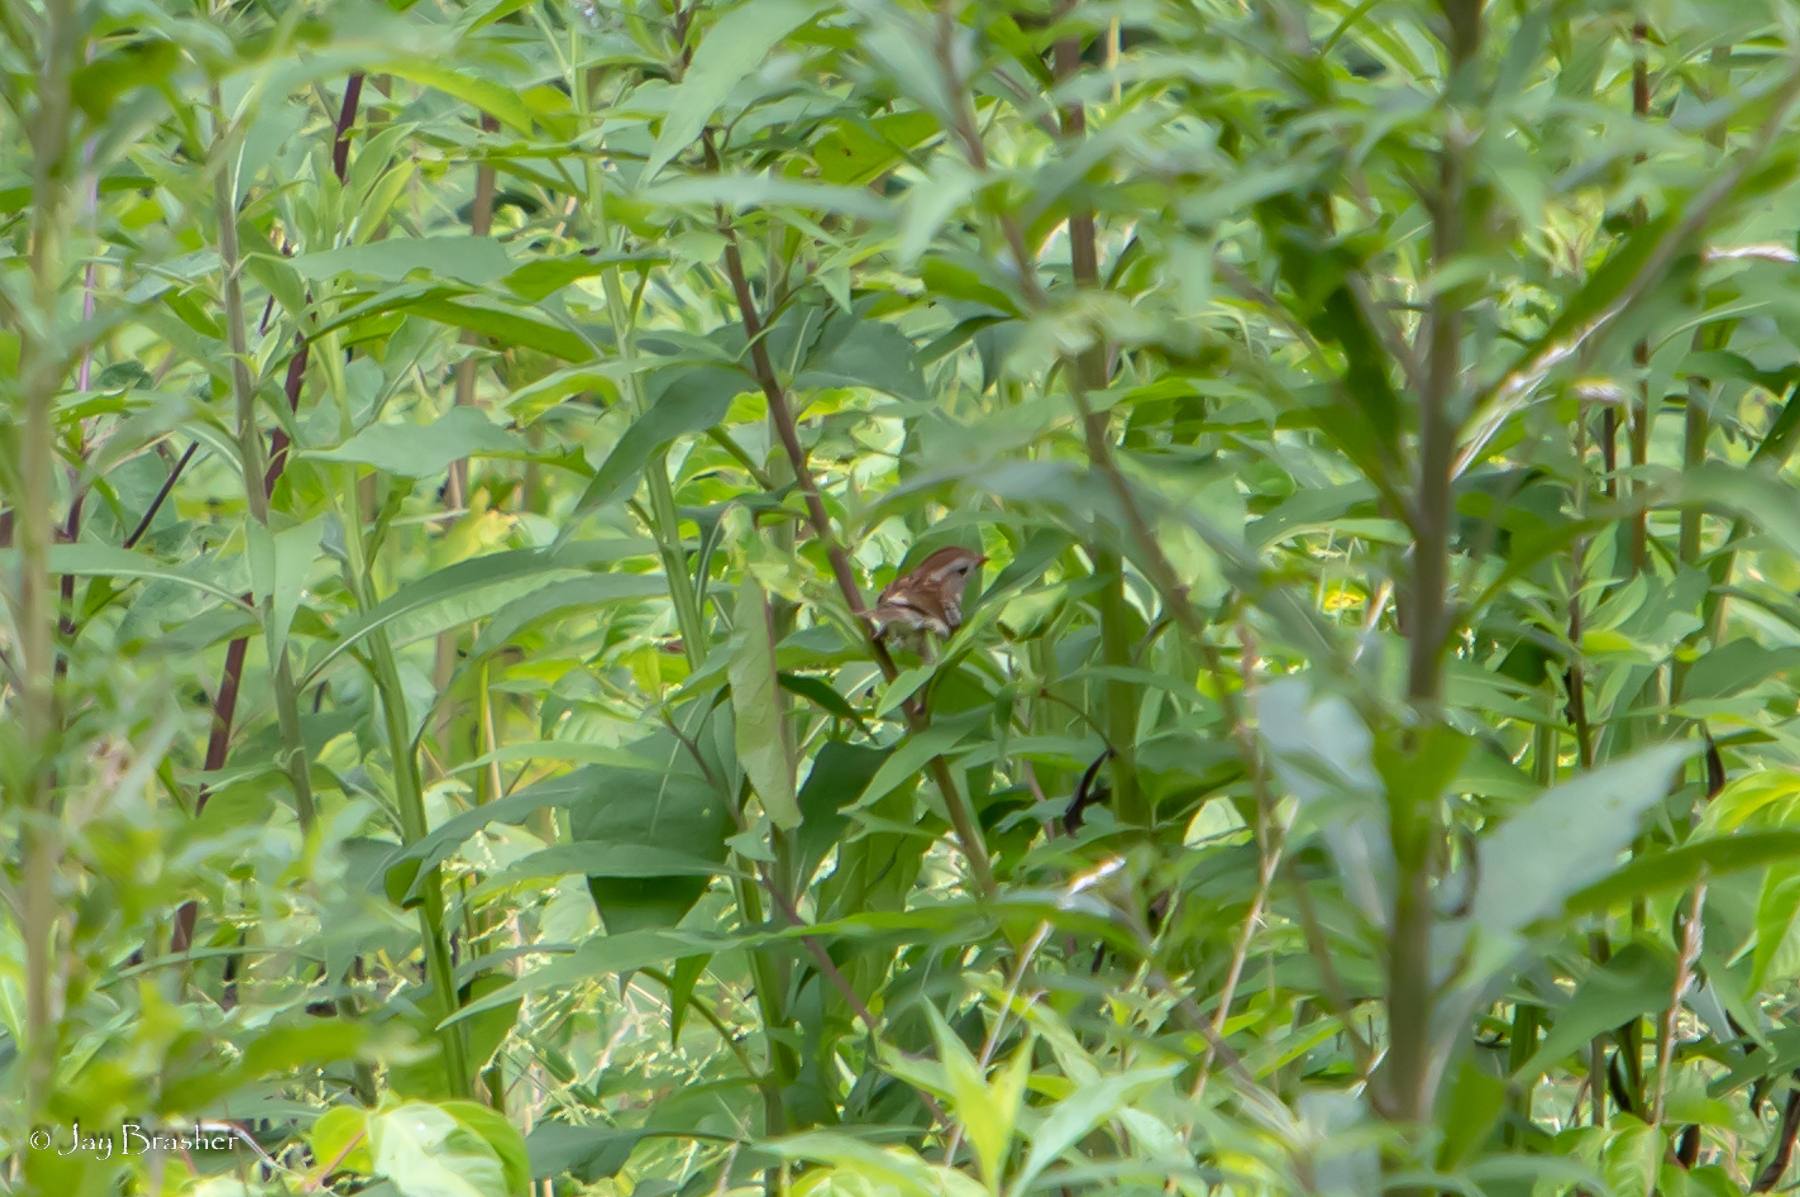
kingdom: Animalia
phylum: Chordata
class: Aves
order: Passeriformes
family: Passerellidae
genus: Spizella
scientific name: Spizella pusilla
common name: Field sparrow
